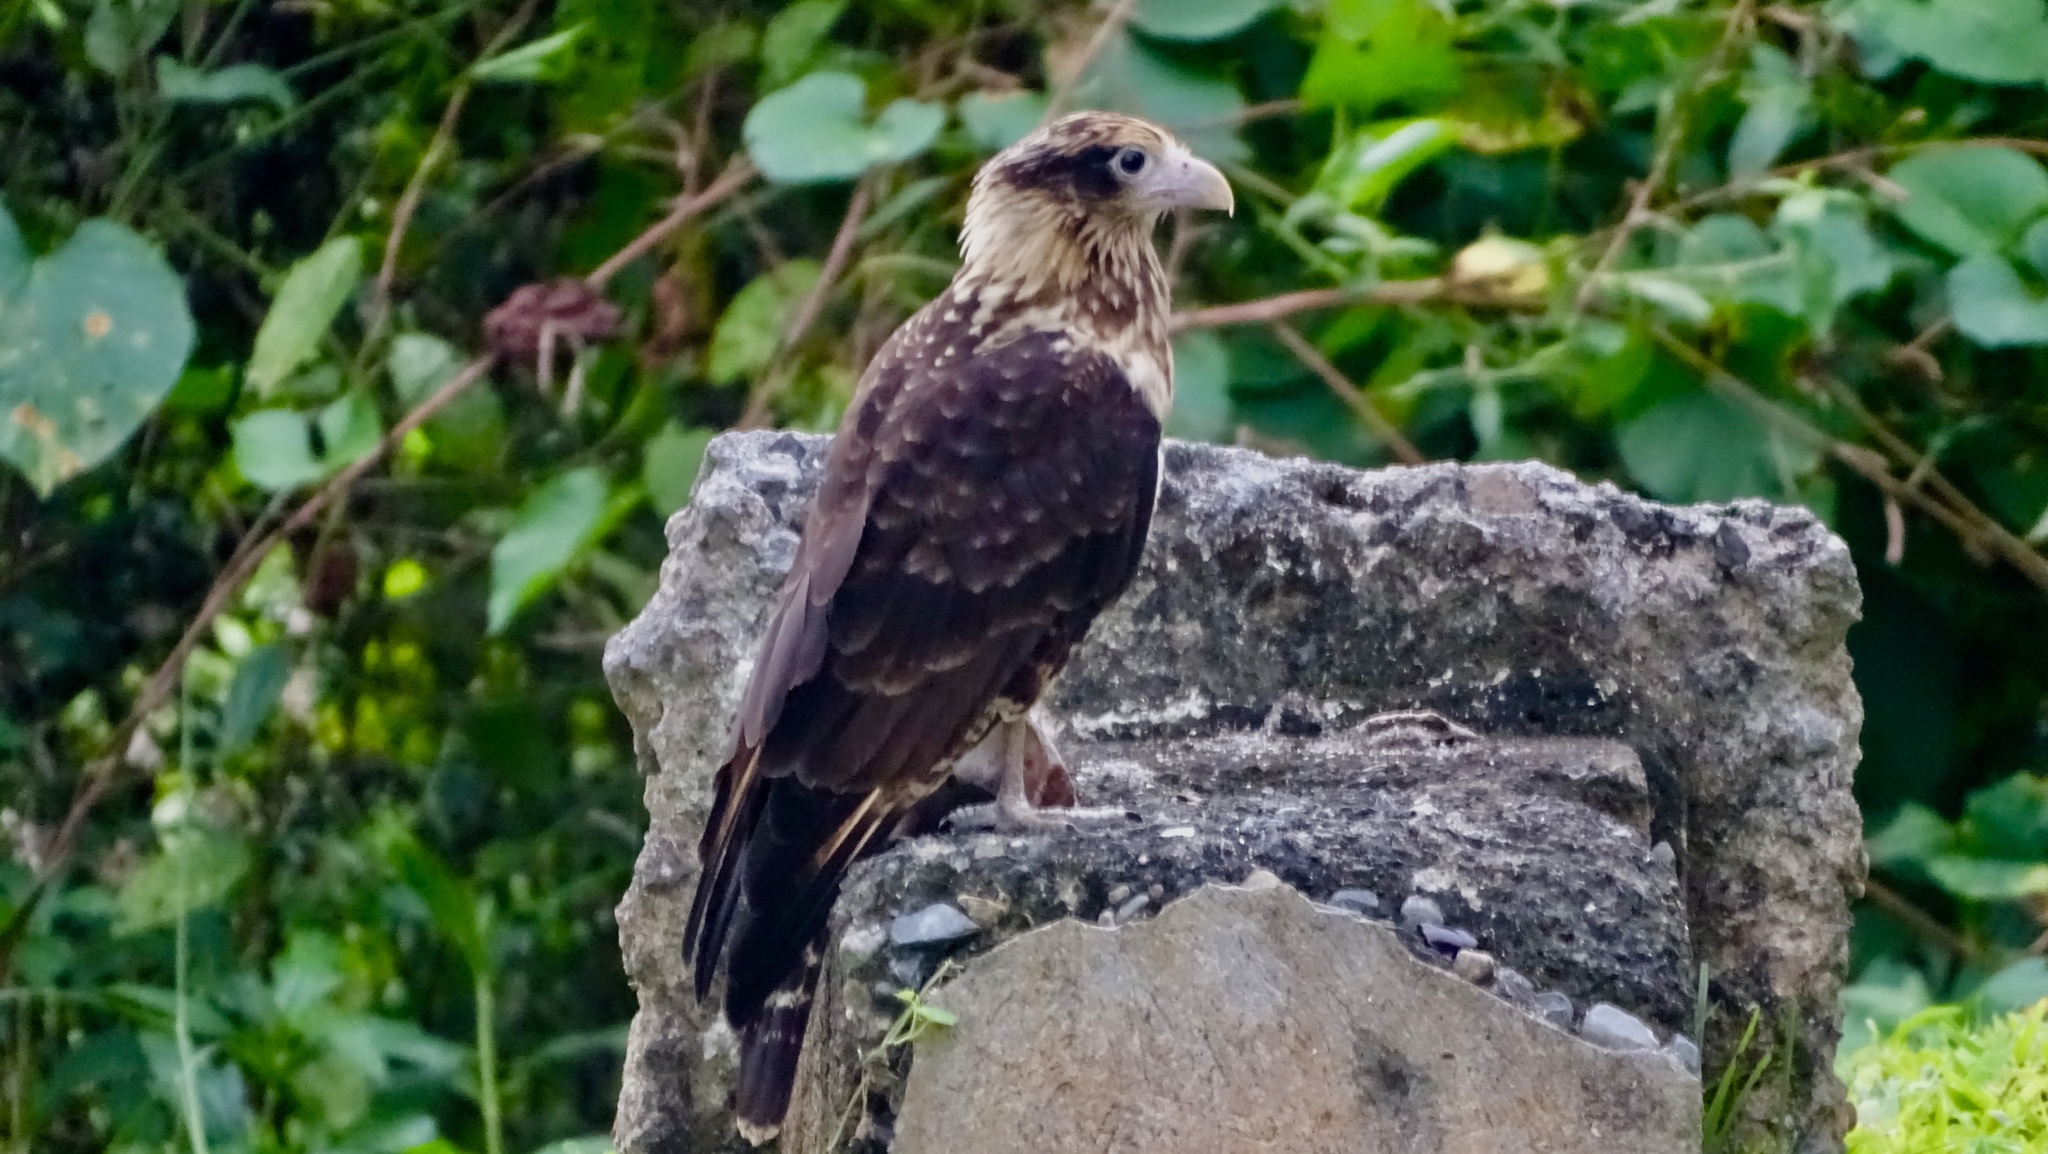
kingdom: Animalia
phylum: Chordata
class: Aves
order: Falconiformes
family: Falconidae
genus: Daptrius
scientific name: Daptrius
